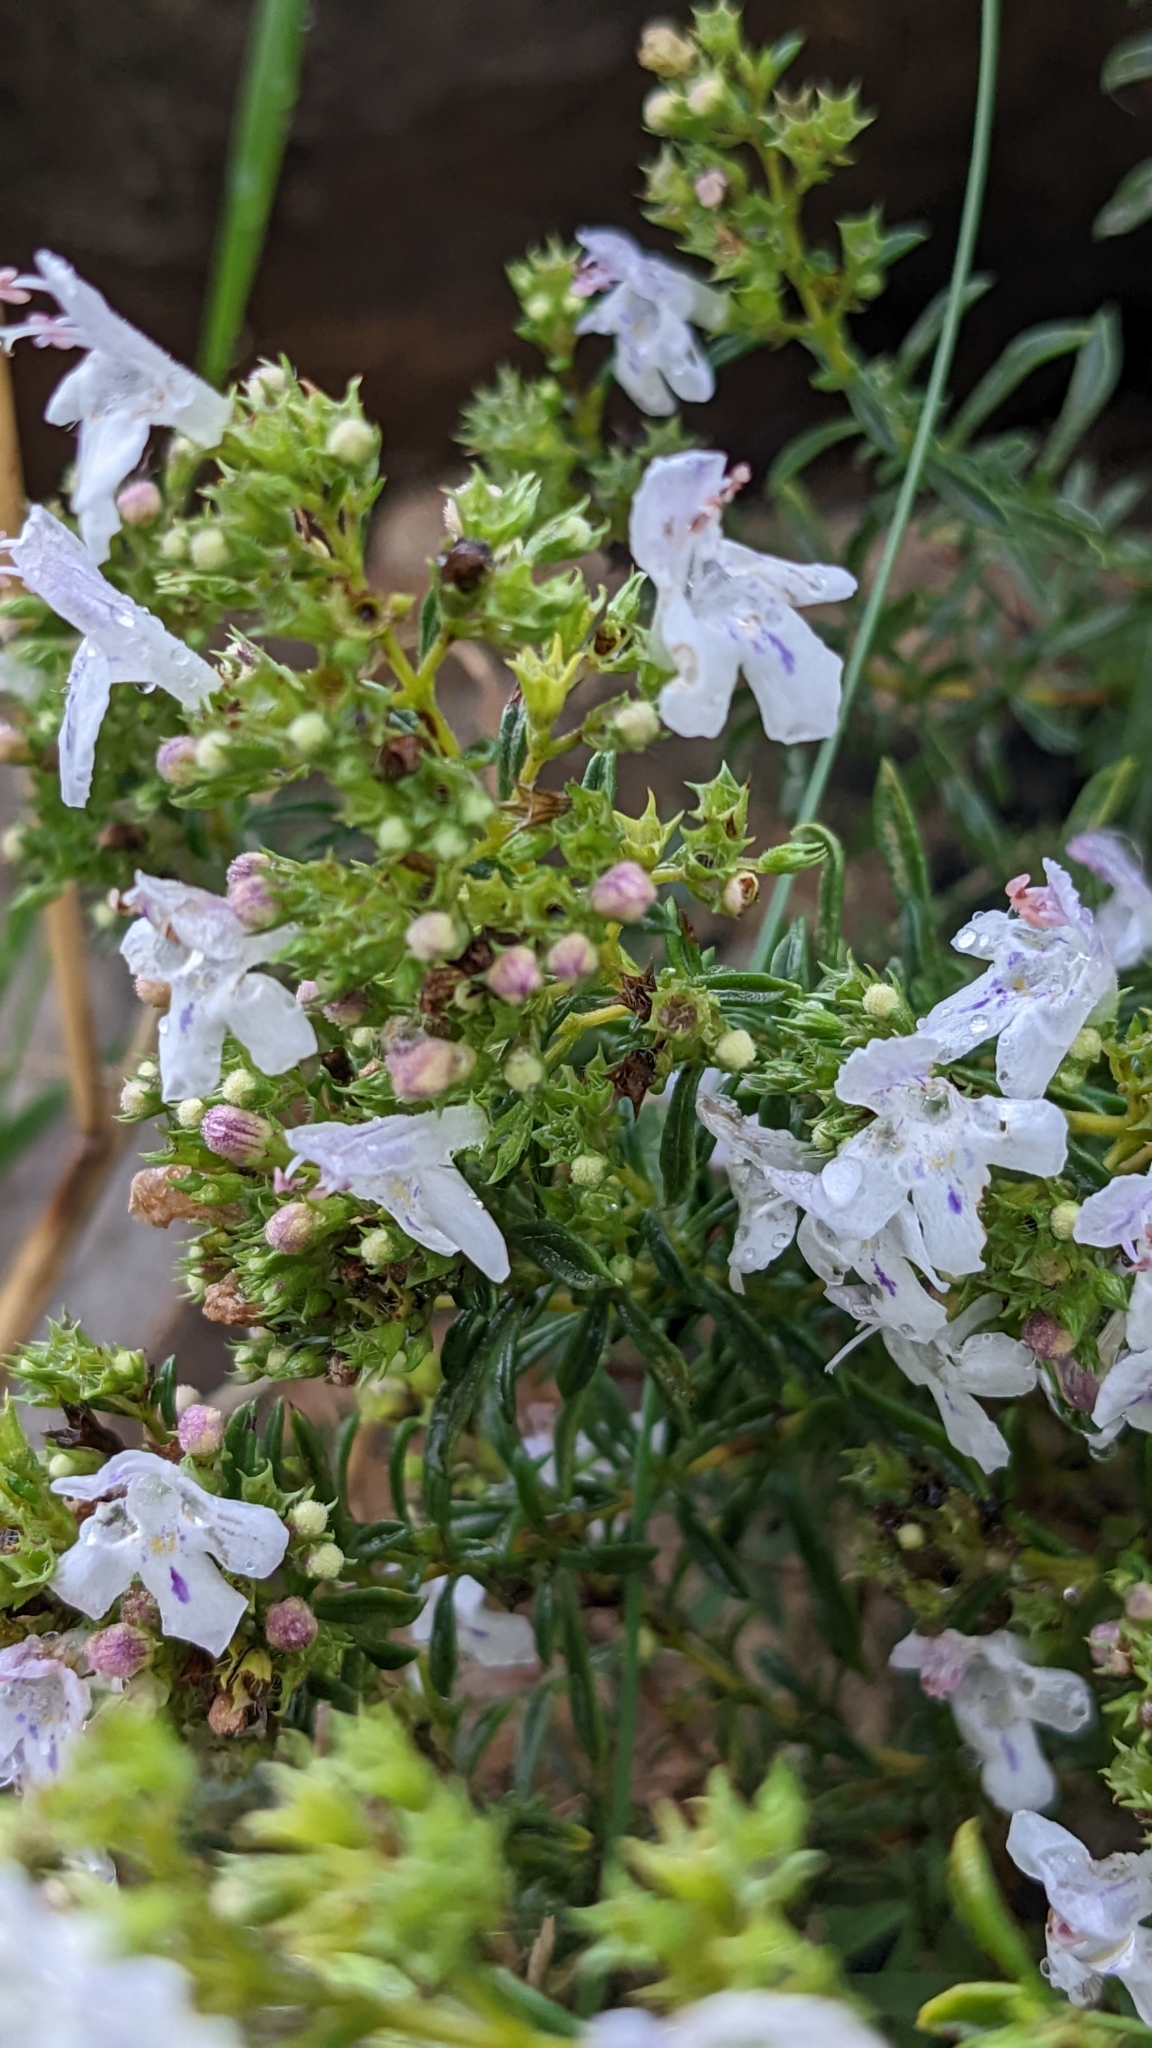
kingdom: Plantae
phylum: Tracheophyta
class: Magnoliopsida
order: Lamiales
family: Lamiaceae
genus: Satureja
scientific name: Satureja montana
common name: Winter savory
